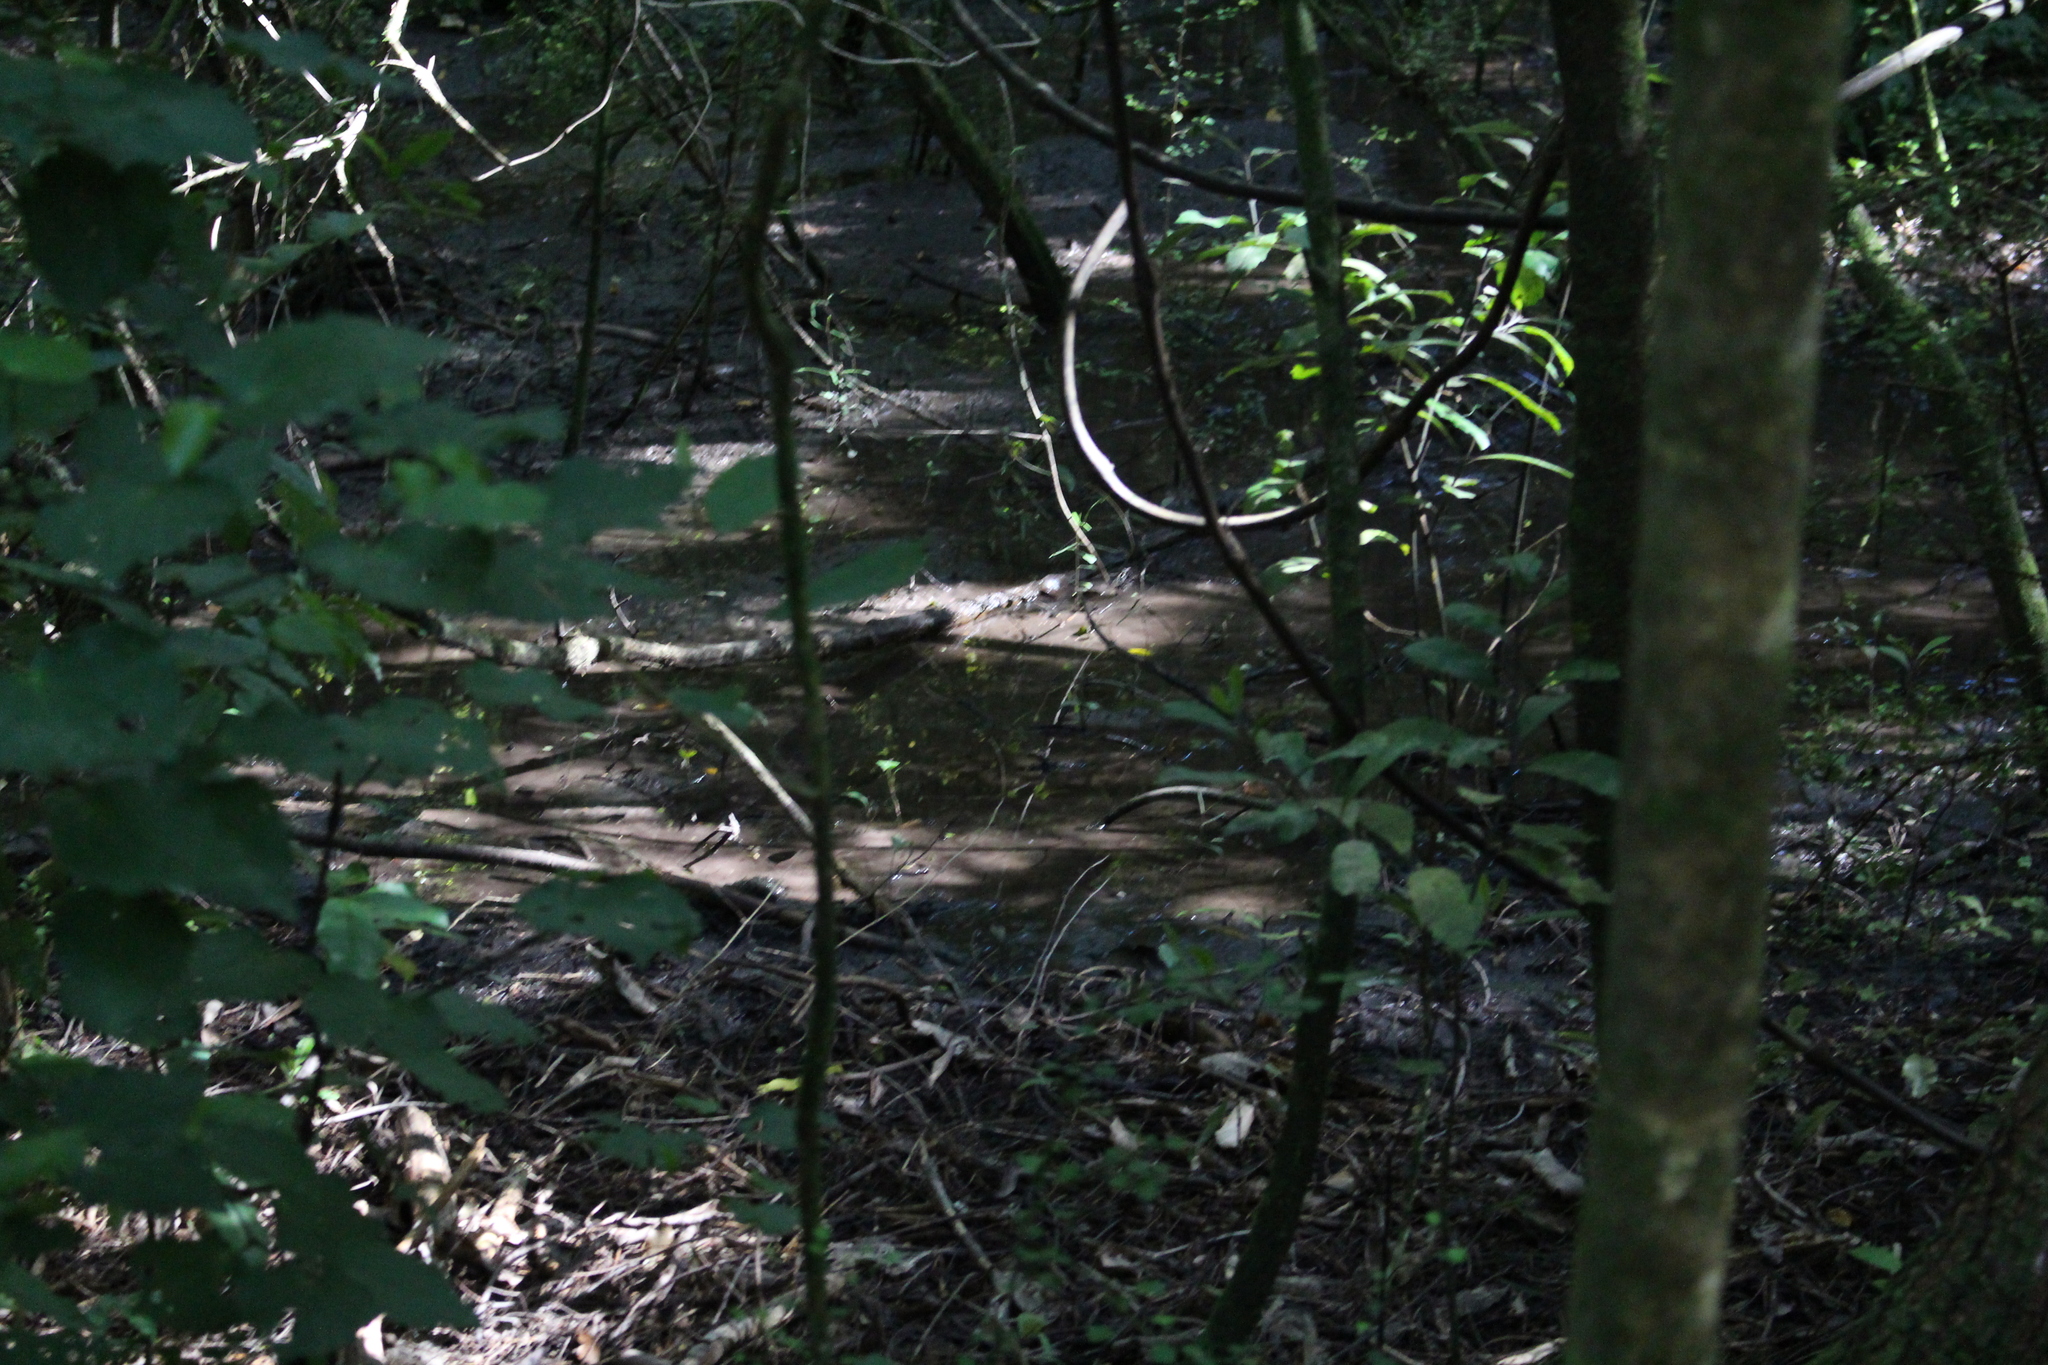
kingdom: Plantae
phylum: Tracheophyta
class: Pinopsida
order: Pinales
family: Podocarpaceae
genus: Dacrycarpus
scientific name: Dacrycarpus dacrydioides
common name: White pine
